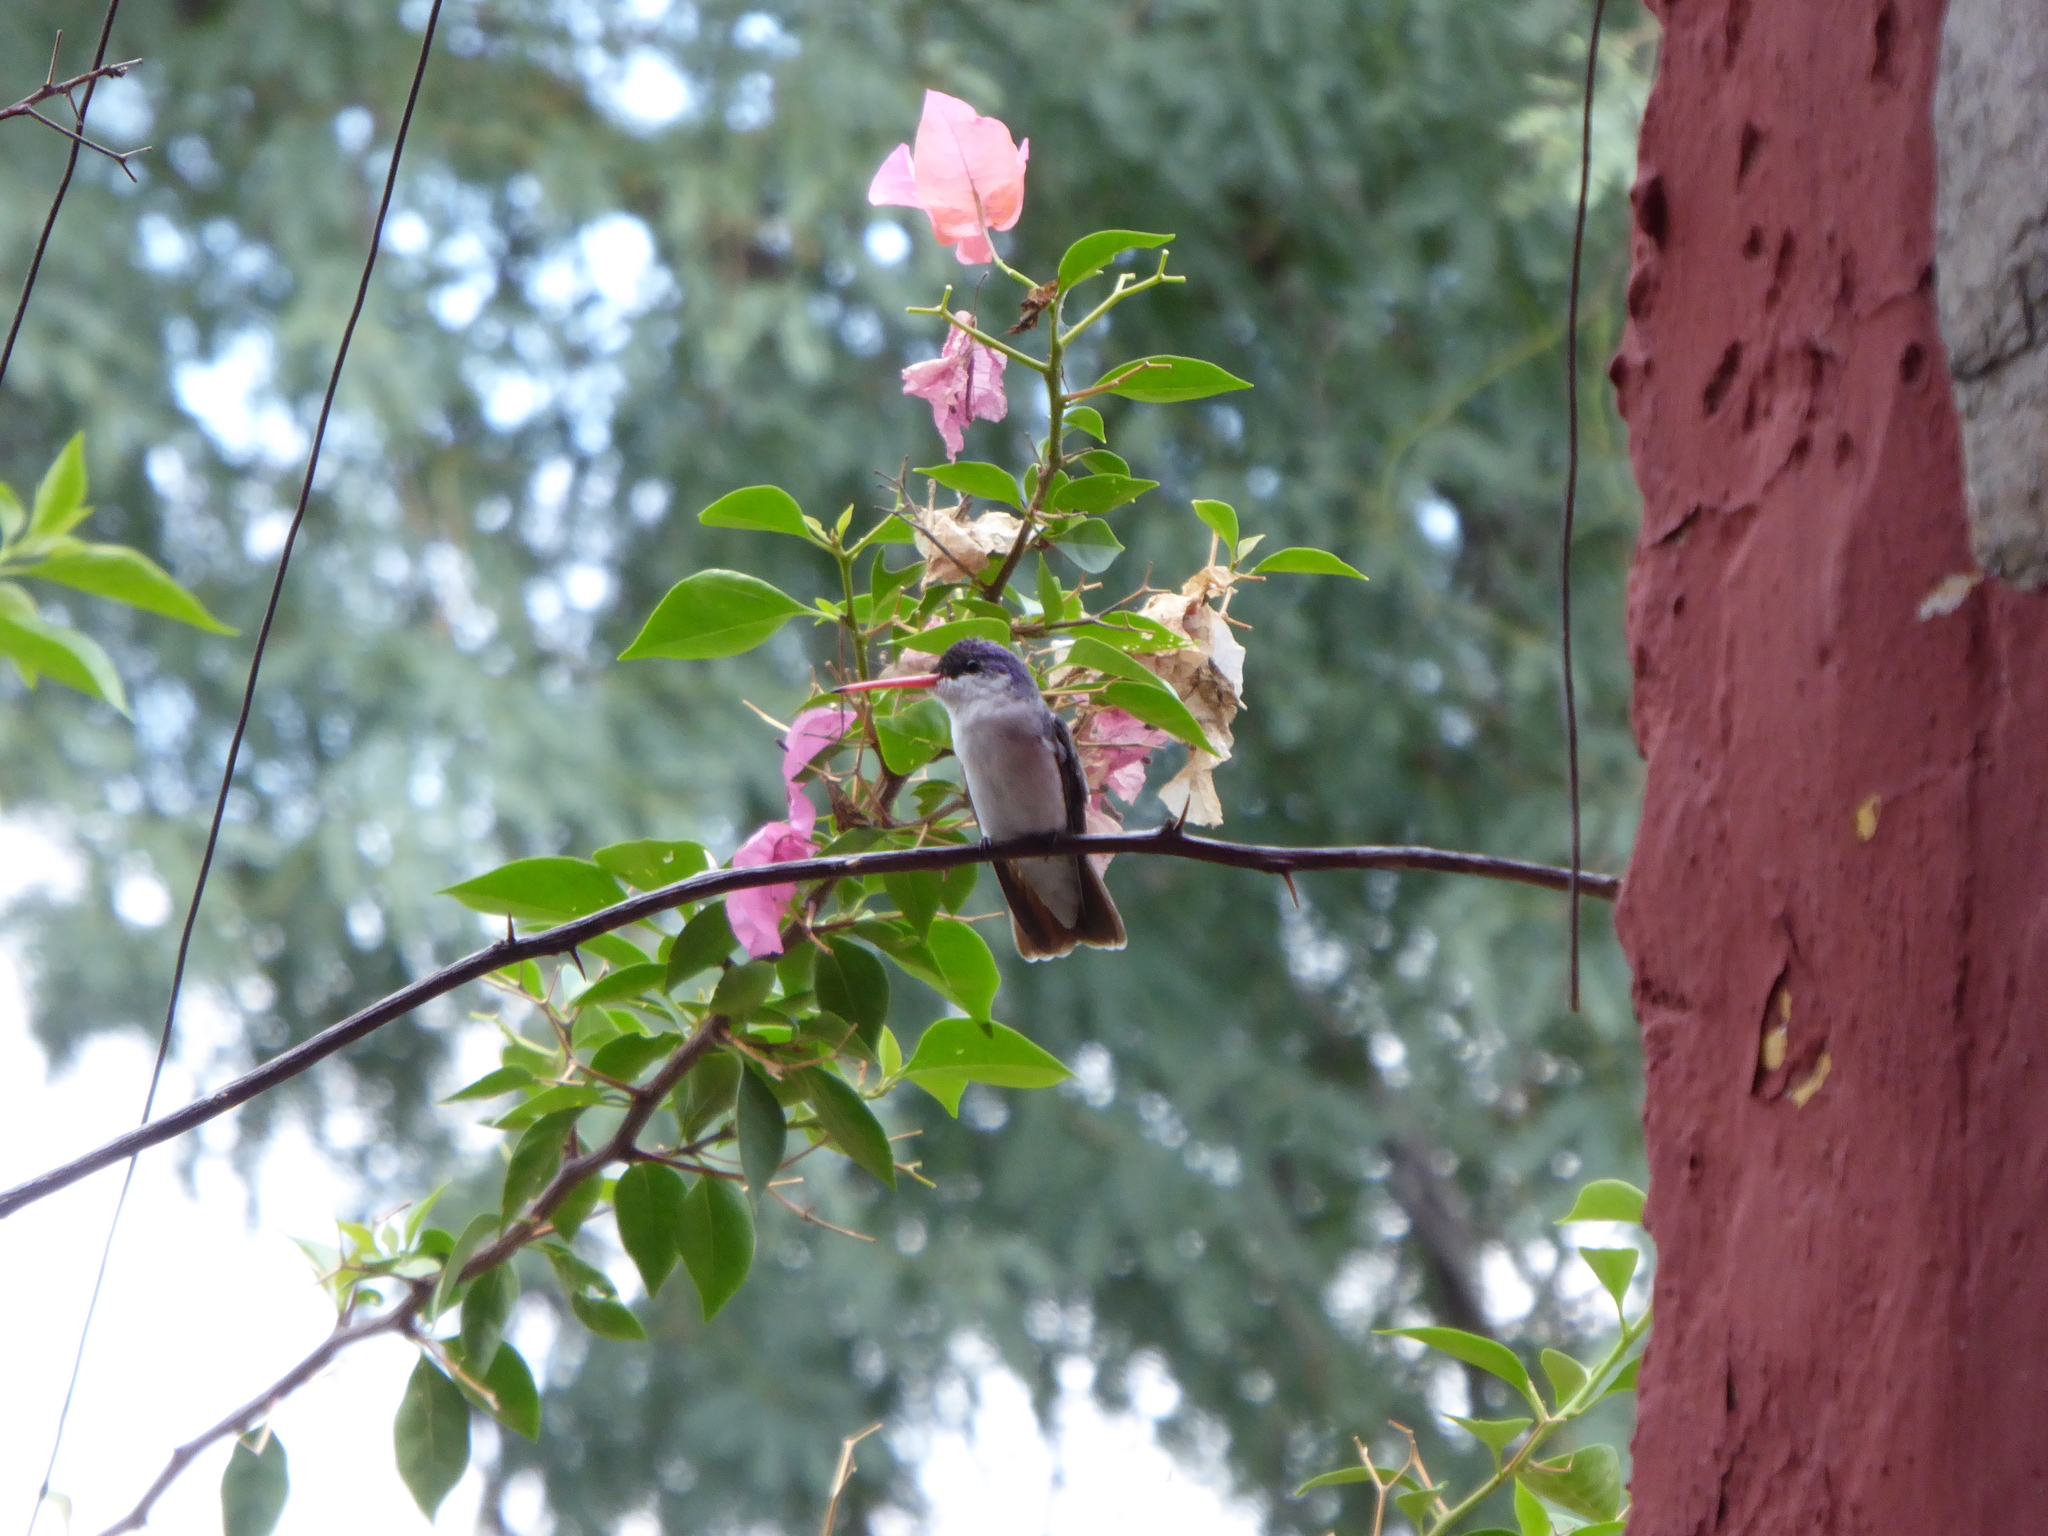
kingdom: Animalia
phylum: Chordata
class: Aves
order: Apodiformes
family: Trochilidae
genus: Leucolia
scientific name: Leucolia violiceps
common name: Violet-crowned hummingbird
